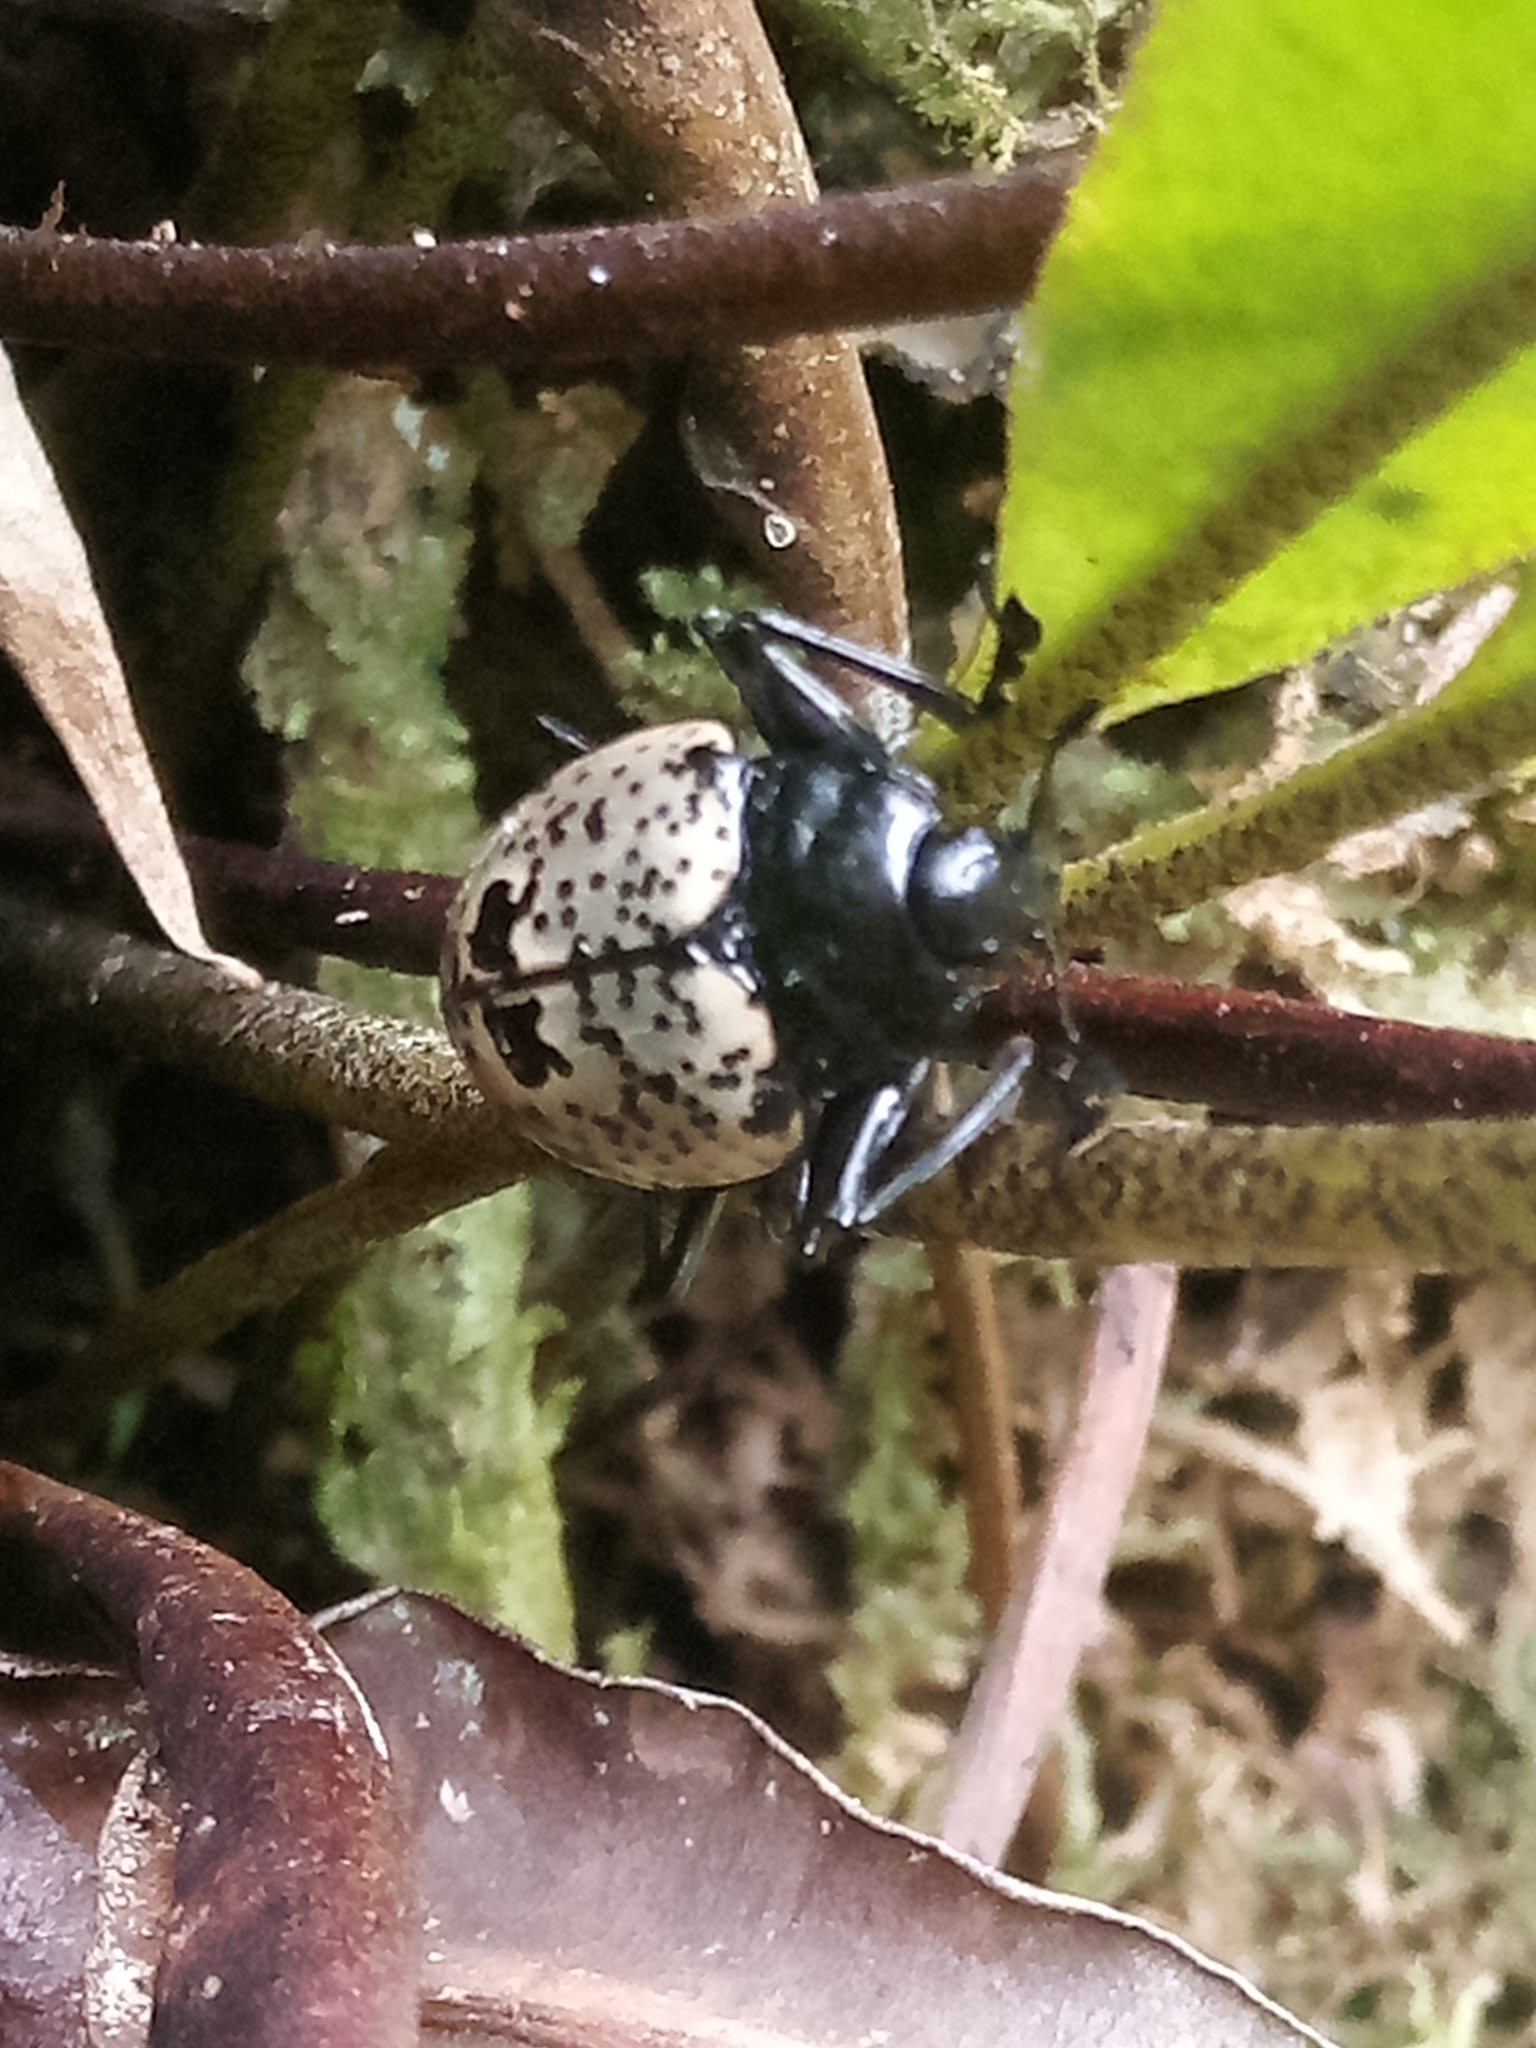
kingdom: Animalia
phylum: Arthropoda
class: Insecta
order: Coleoptera
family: Erotylidae
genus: Gibbifer
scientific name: Gibbifer
